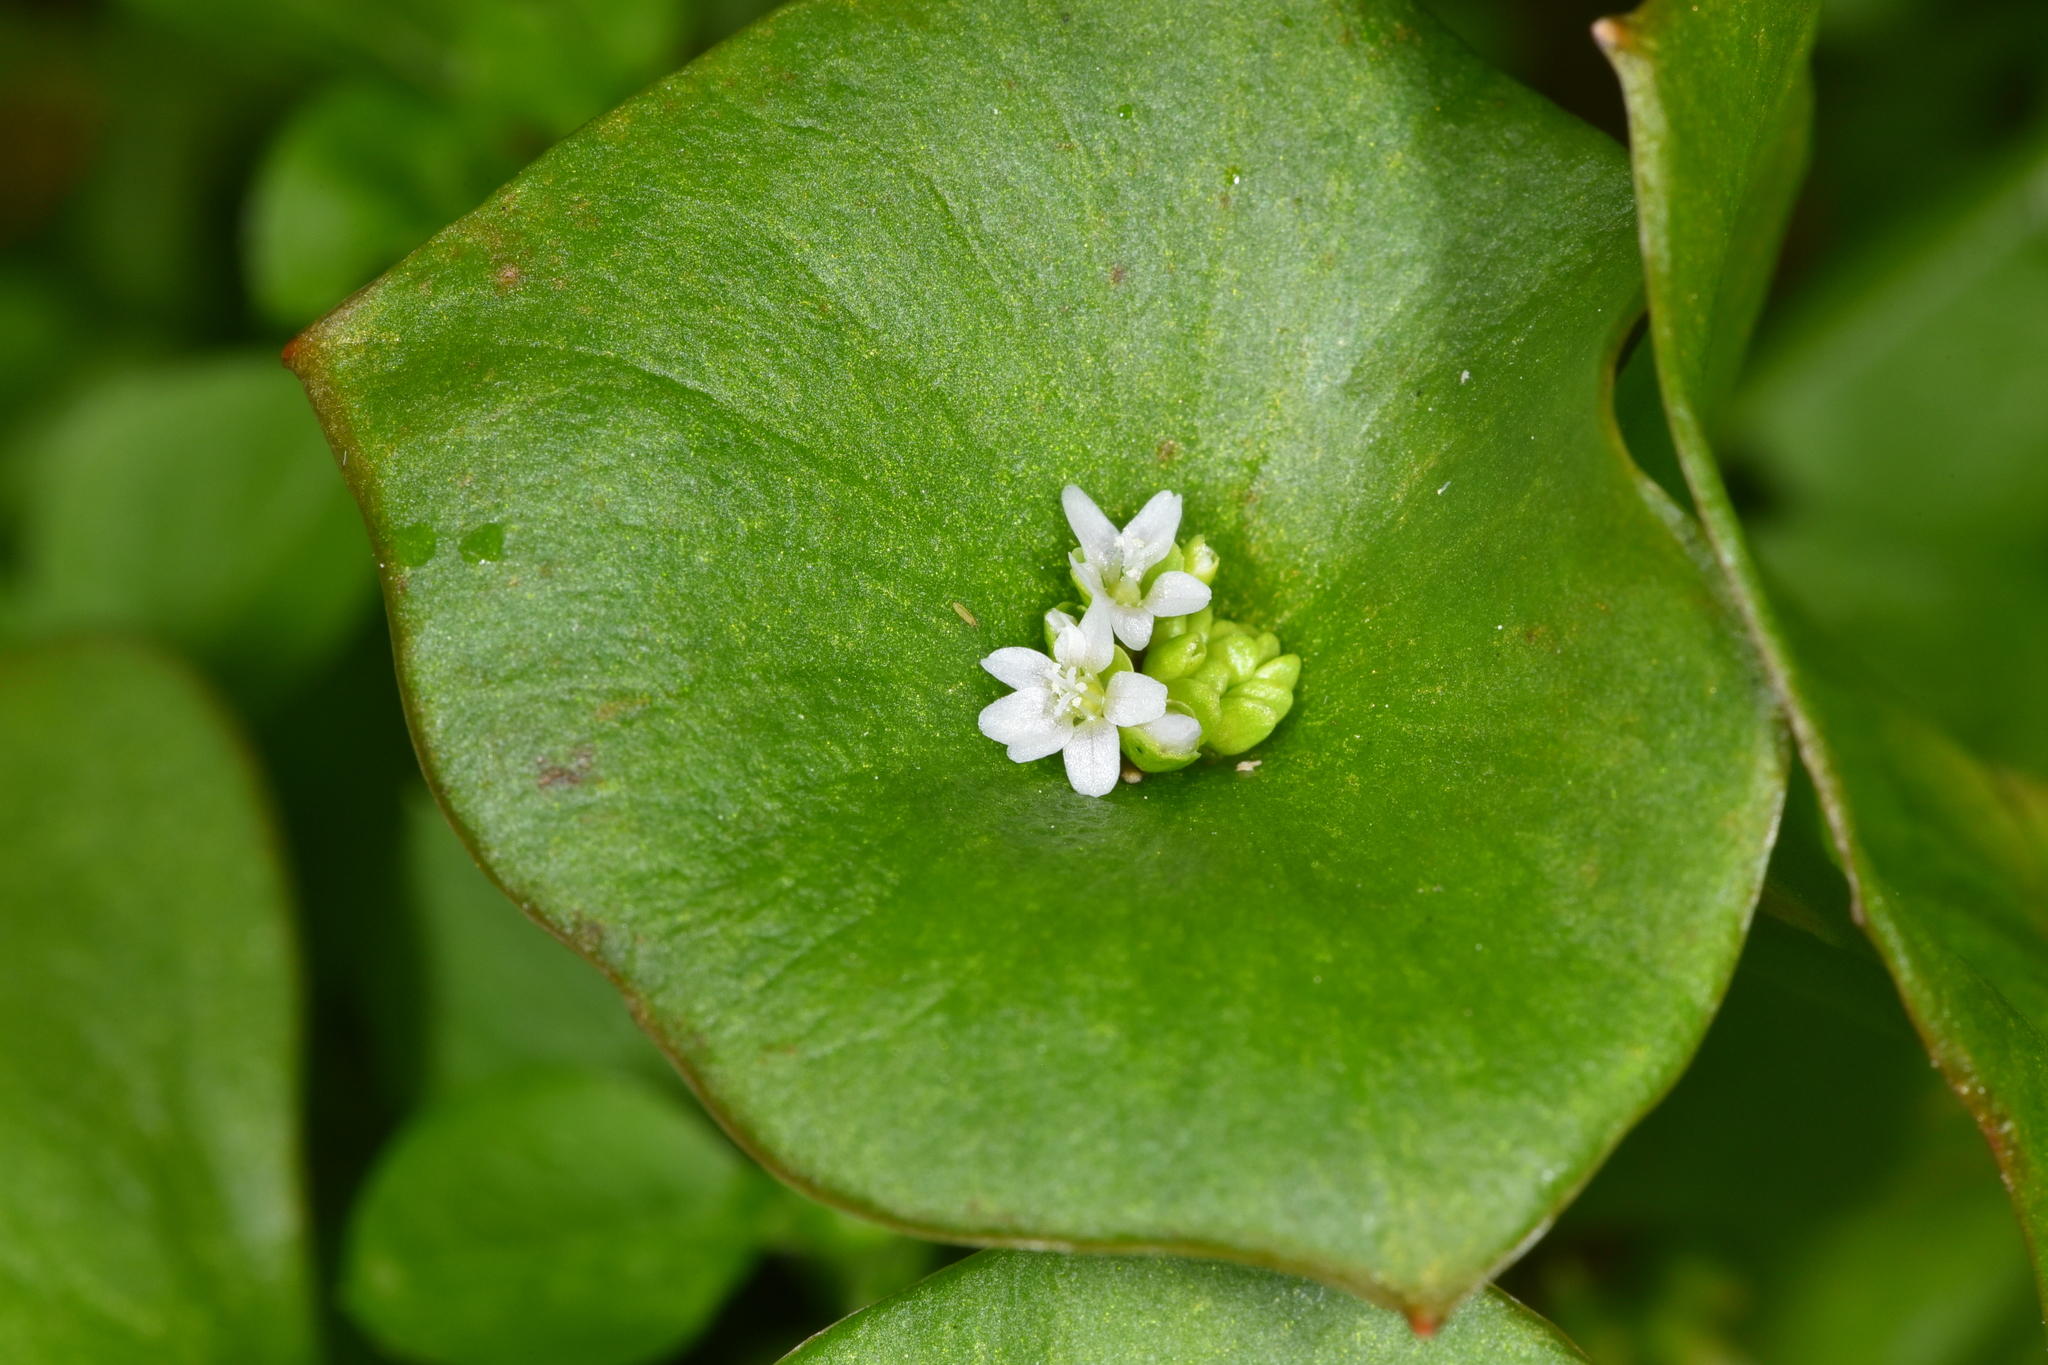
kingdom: Plantae
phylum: Tracheophyta
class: Magnoliopsida
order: Caryophyllales
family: Montiaceae
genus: Claytonia
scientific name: Claytonia perfoliata
